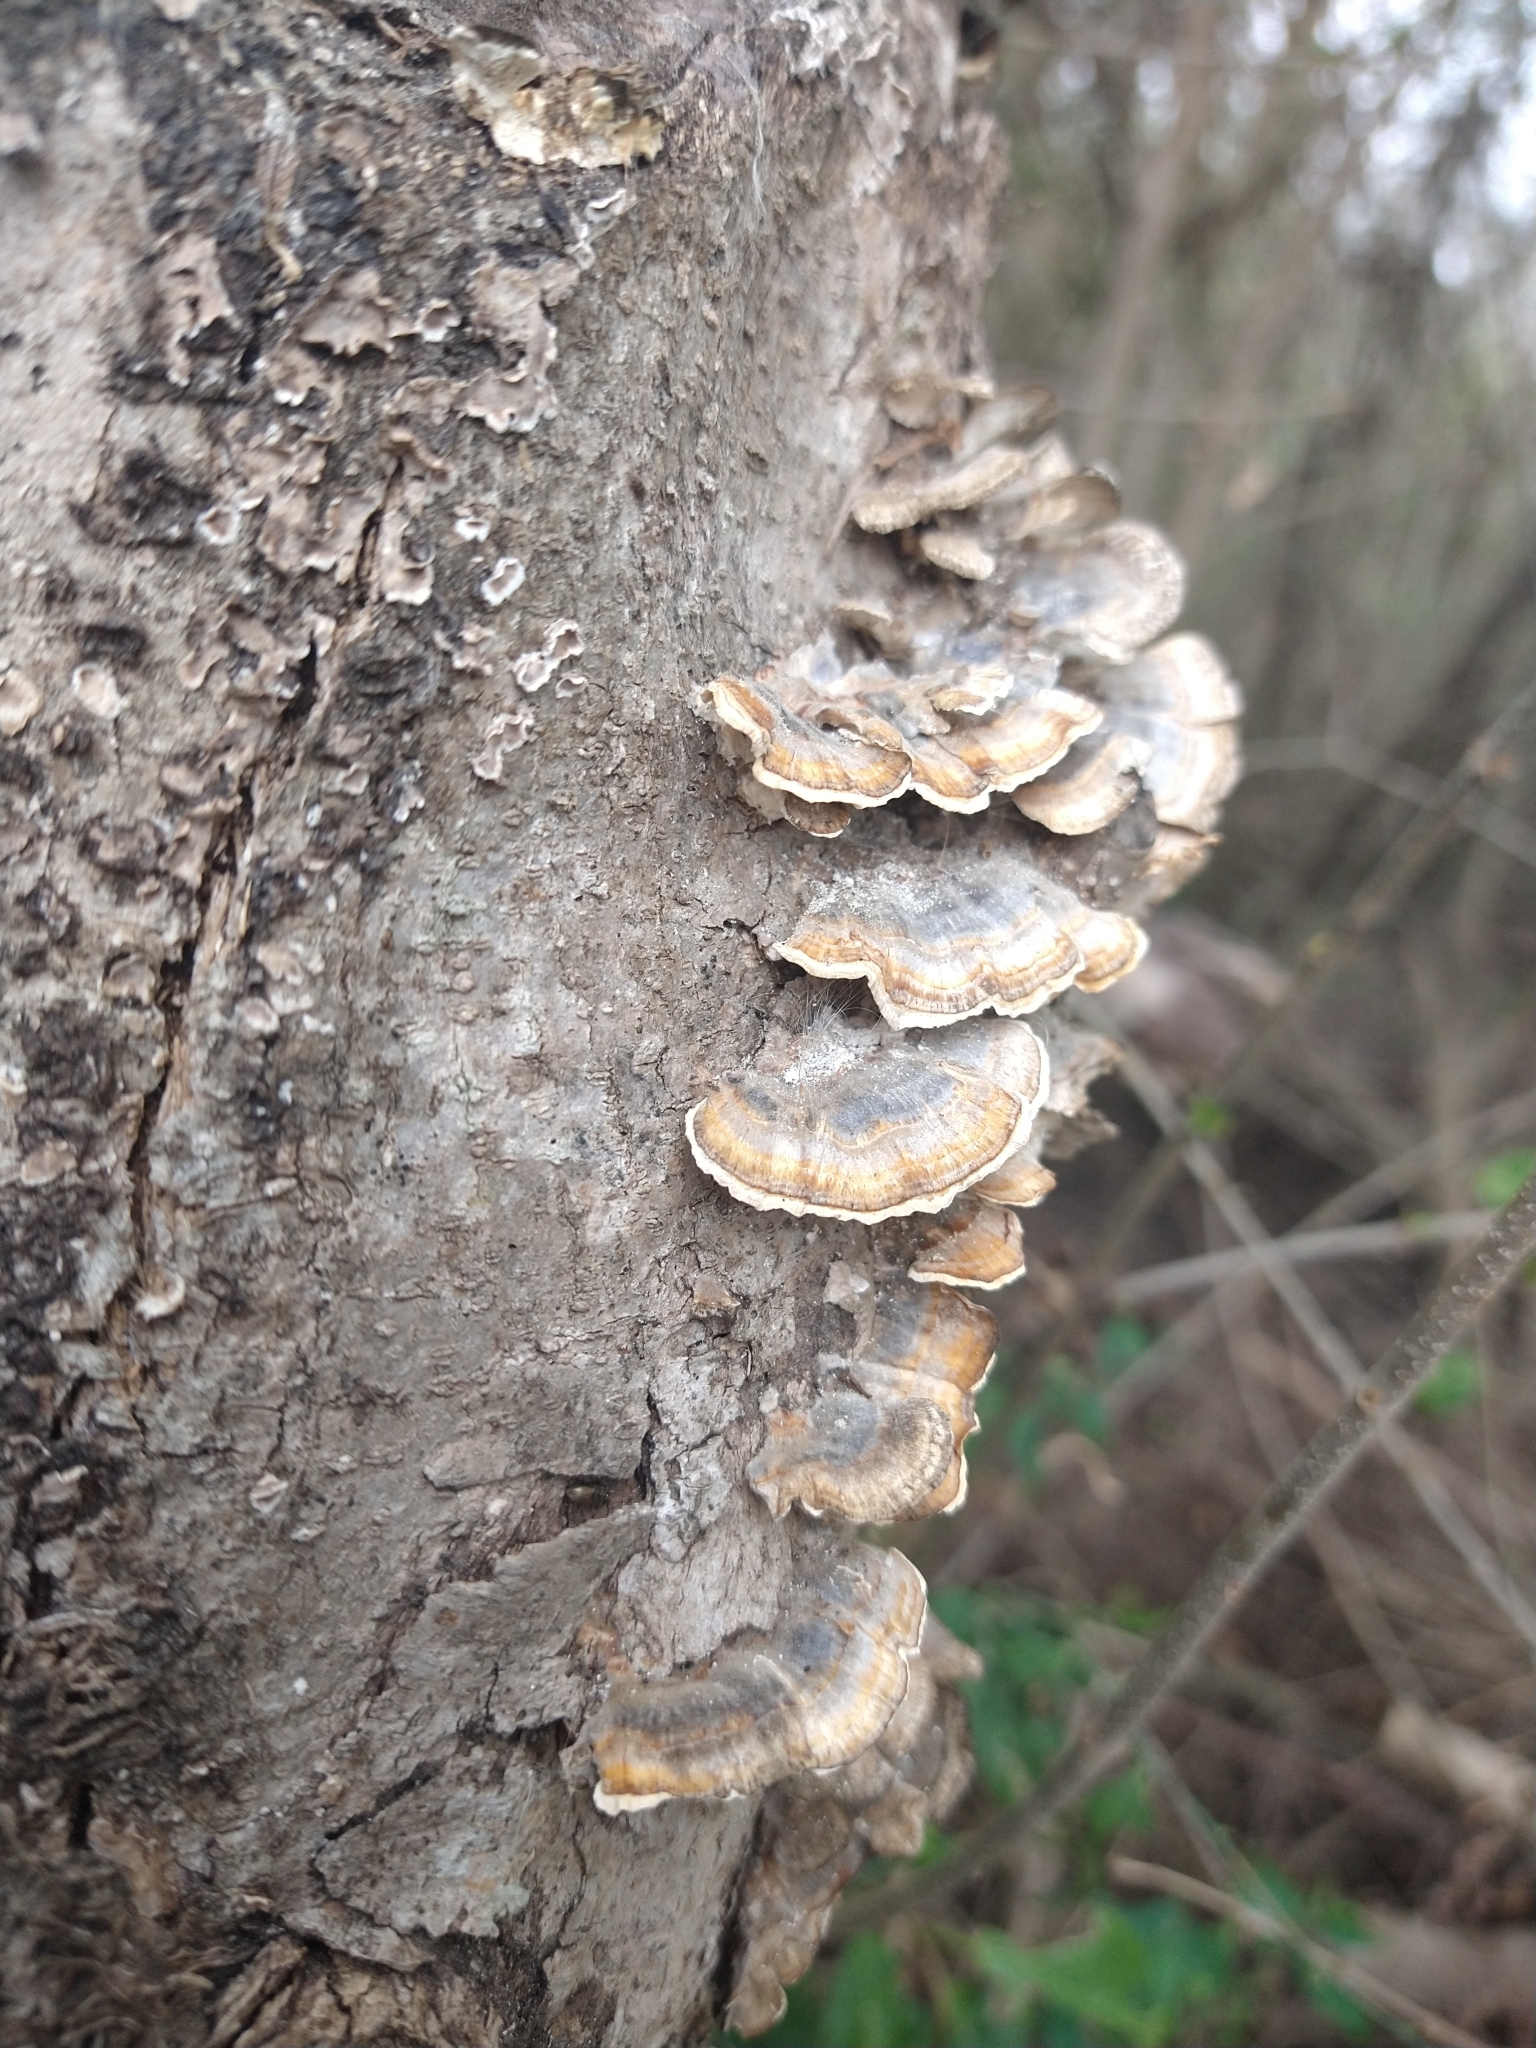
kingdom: Fungi
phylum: Basidiomycota
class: Agaricomycetes
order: Polyporales
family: Polyporaceae
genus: Trametes
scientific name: Trametes versicolor
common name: Turkeytail
